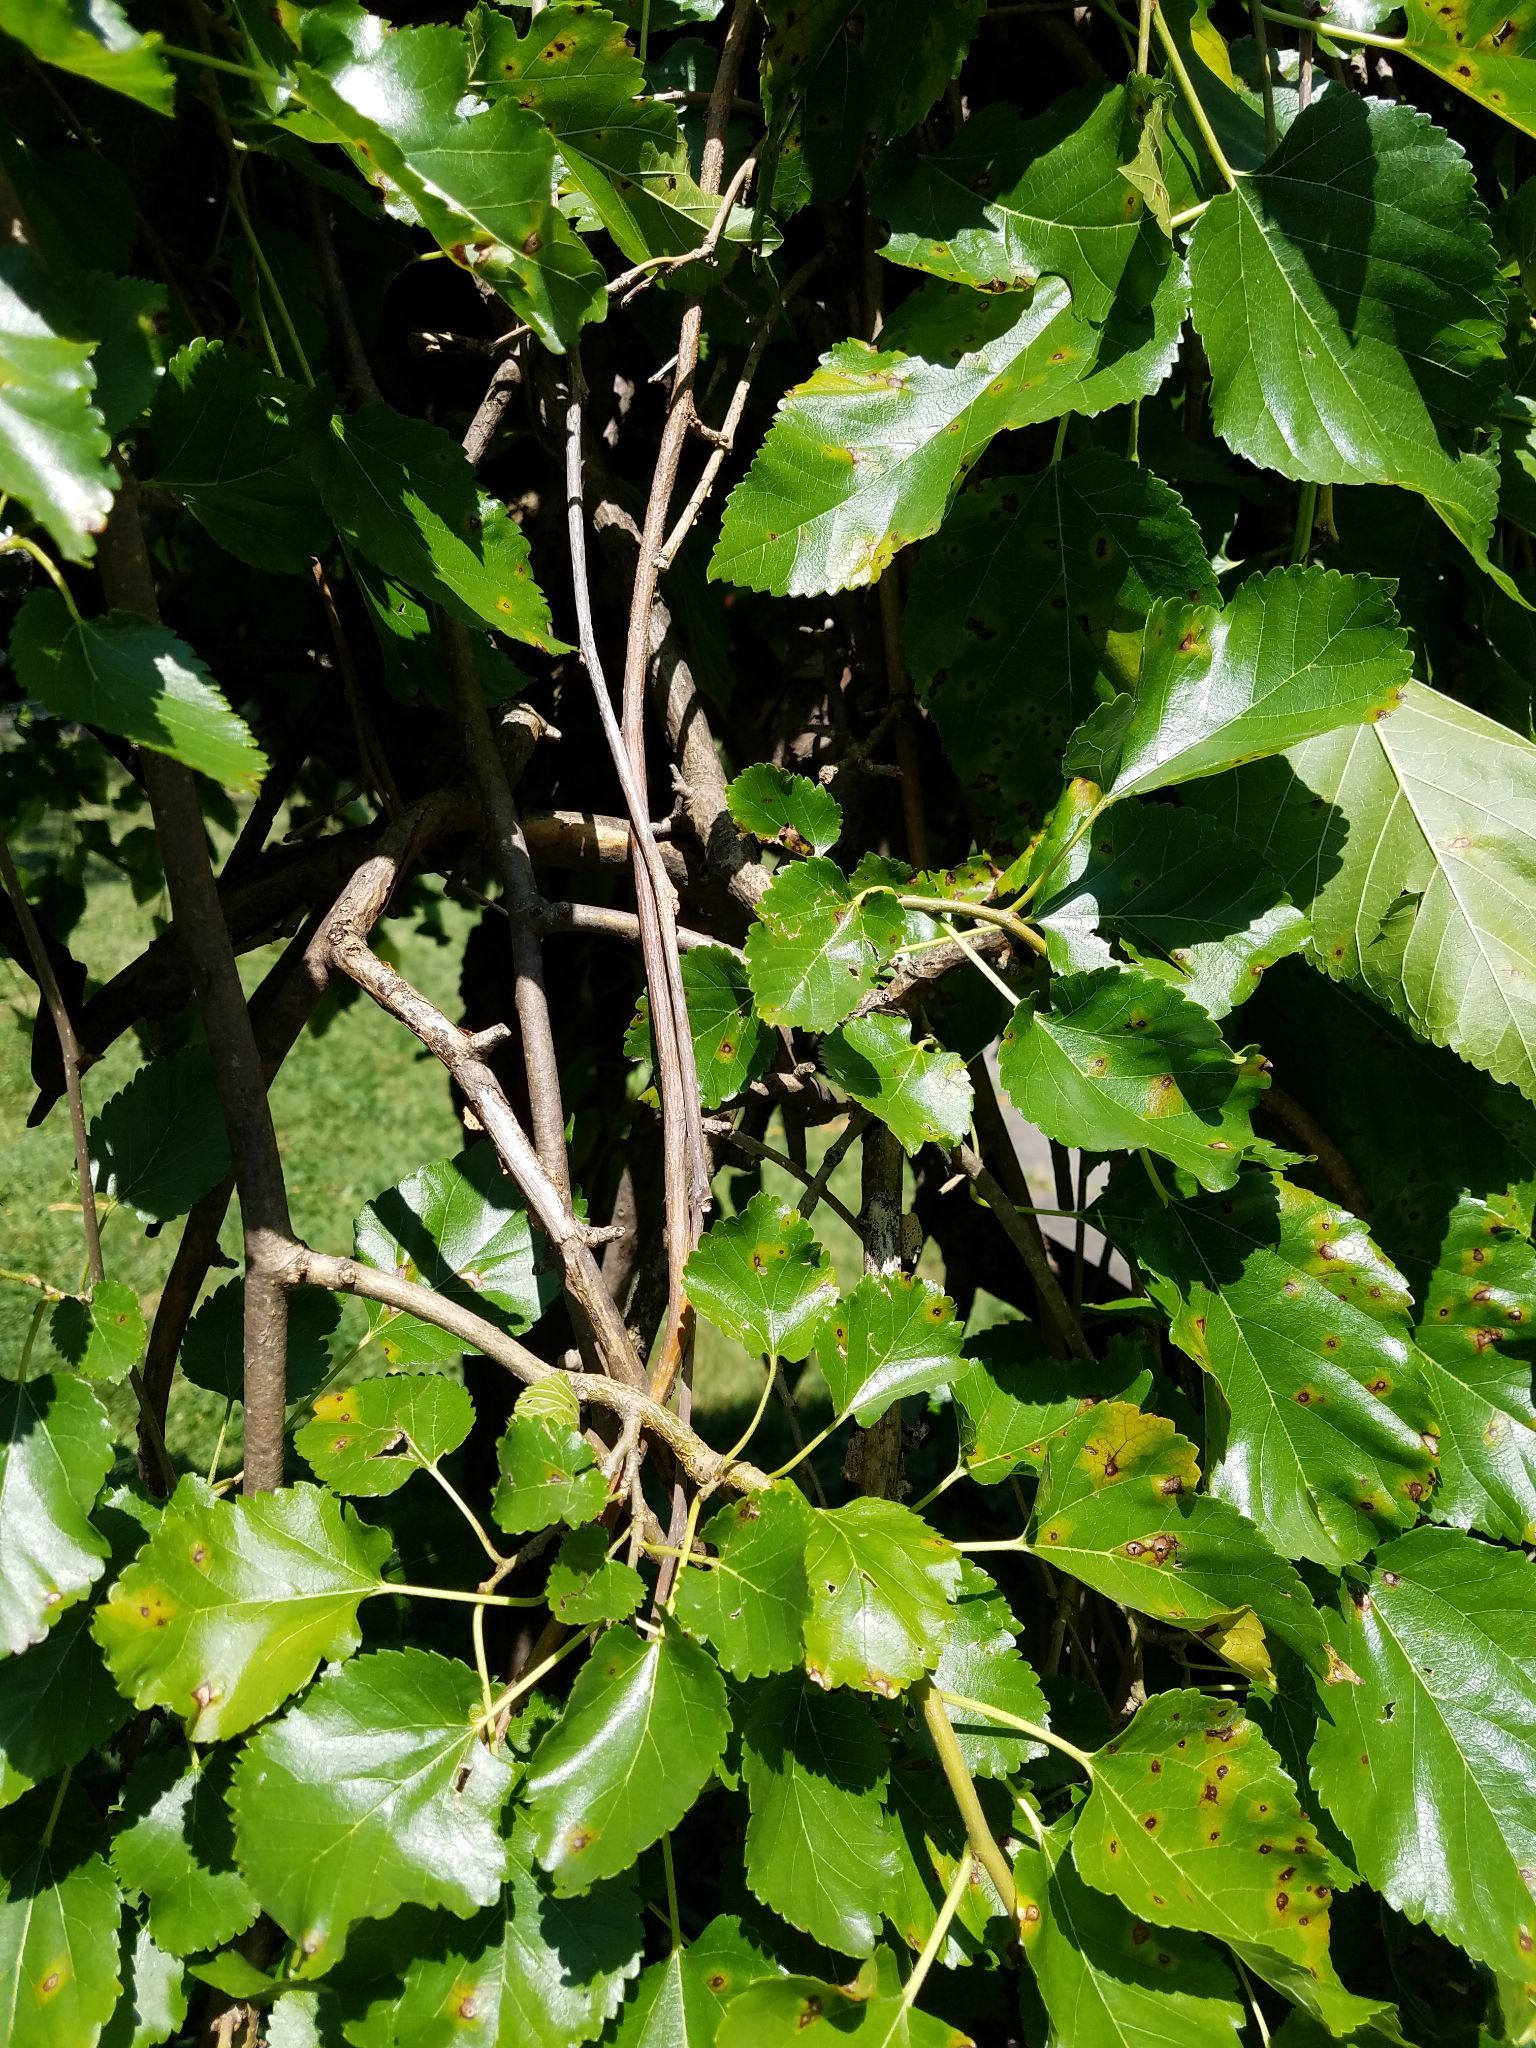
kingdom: Plantae
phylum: Tracheophyta
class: Magnoliopsida
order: Rosales
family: Moraceae
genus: Morus
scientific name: Morus alba
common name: White mulberry
